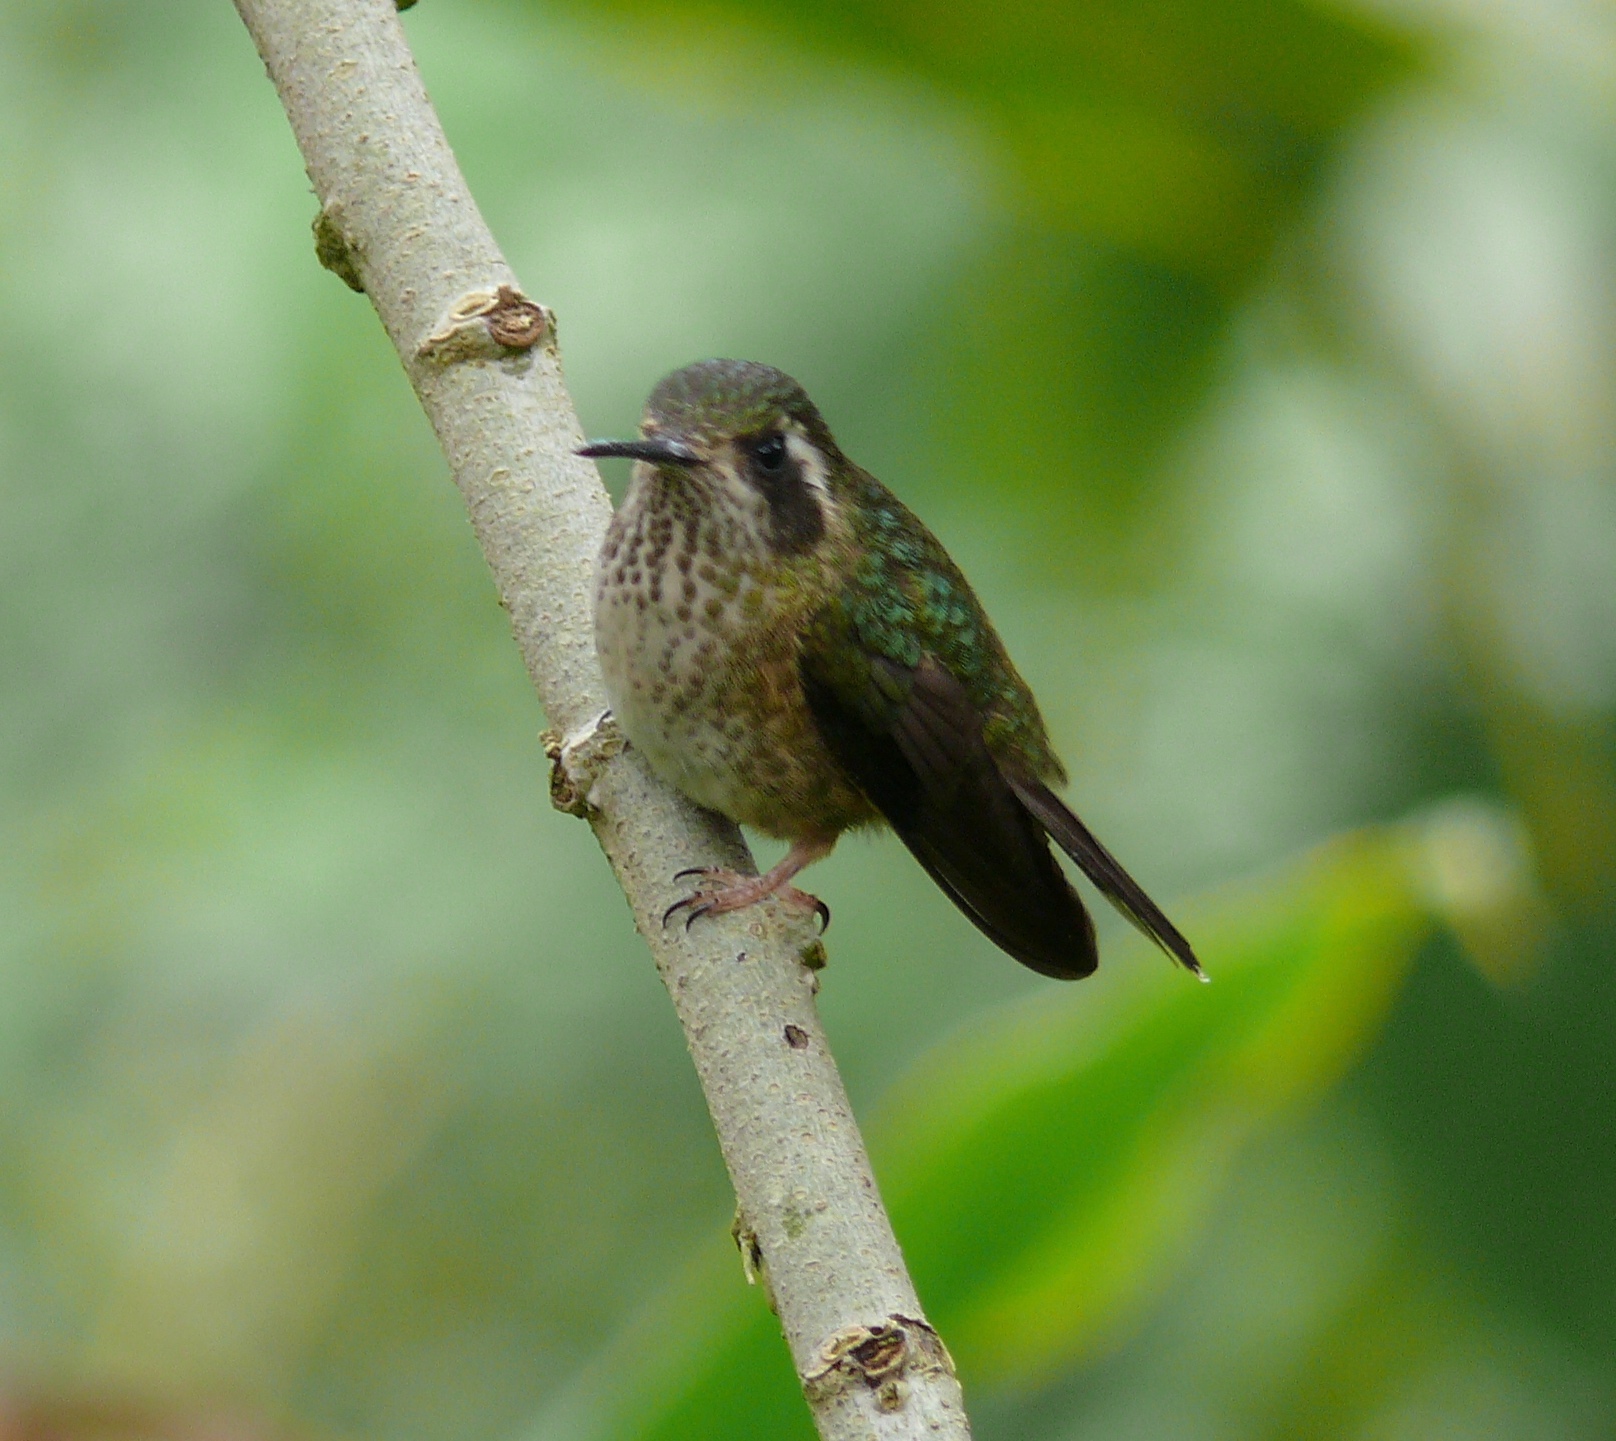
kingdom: Animalia
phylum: Chordata
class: Aves
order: Apodiformes
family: Trochilidae
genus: Adelomyia
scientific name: Adelomyia melanogenys
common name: Speckled hummingbird
